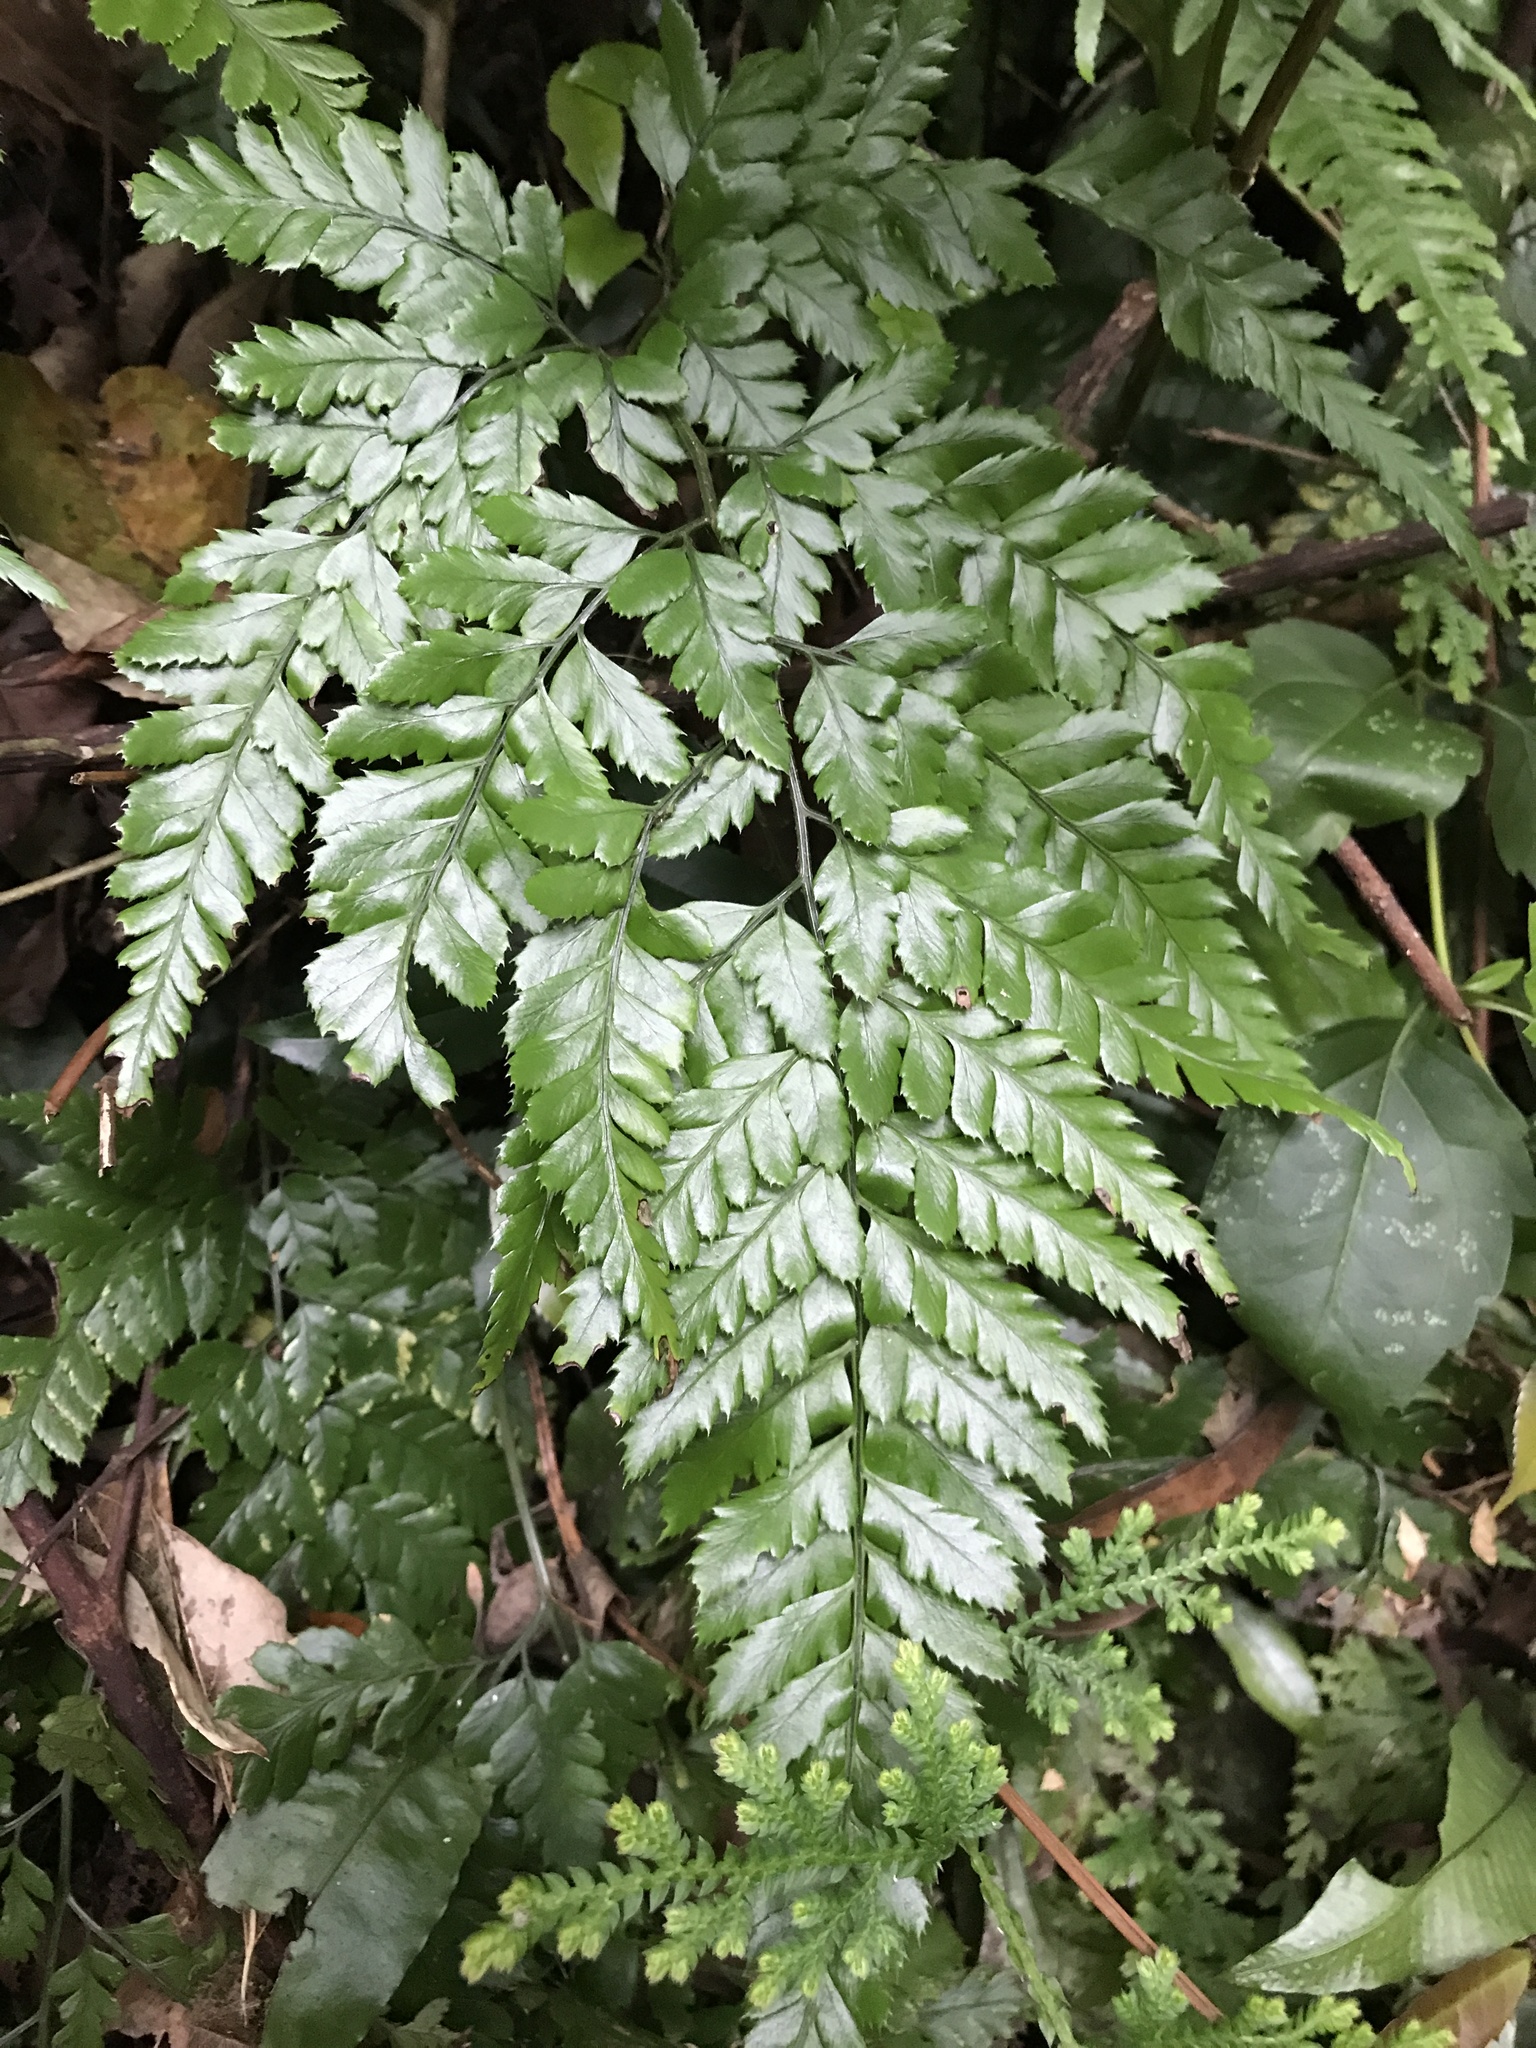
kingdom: Plantae
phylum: Tracheophyta
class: Polypodiopsida
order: Polypodiales
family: Dryopteridaceae
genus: Arachniodes
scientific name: Arachniodes pseudoaristata
